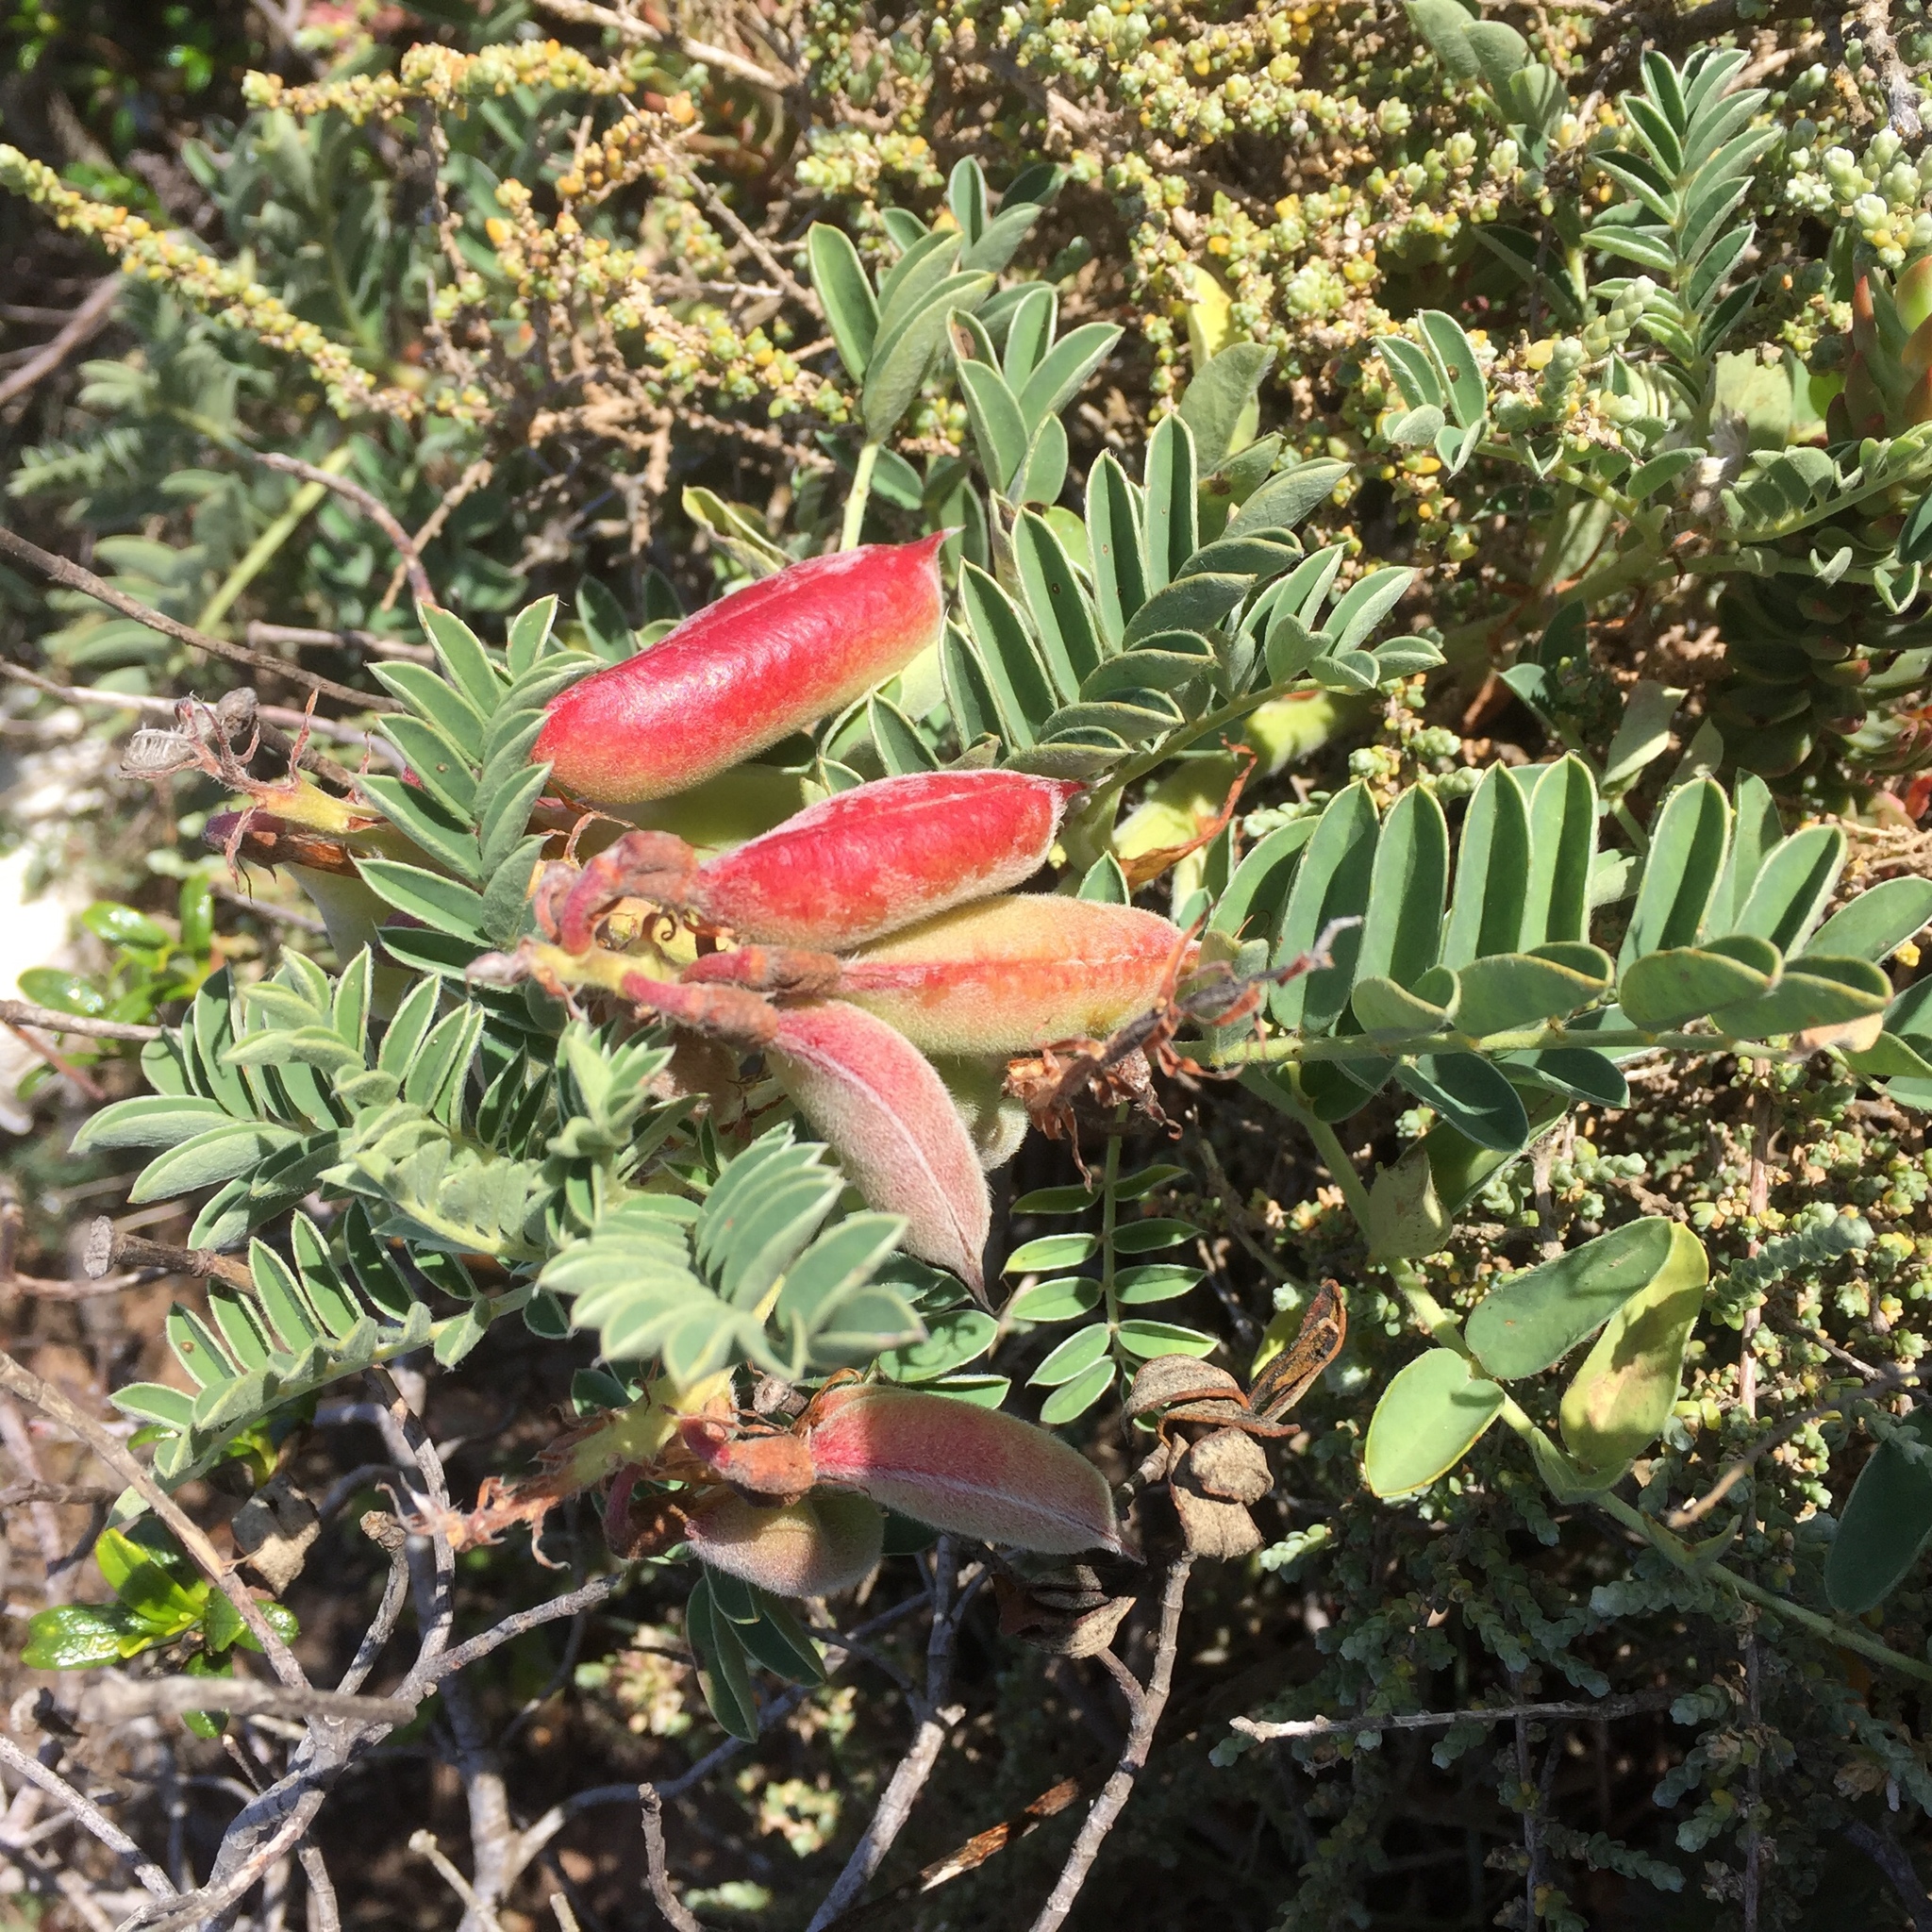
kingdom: Plantae
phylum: Tracheophyta
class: Magnoliopsida
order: Fabales
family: Fabaceae
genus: Erophaca
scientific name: Erophaca baetica
